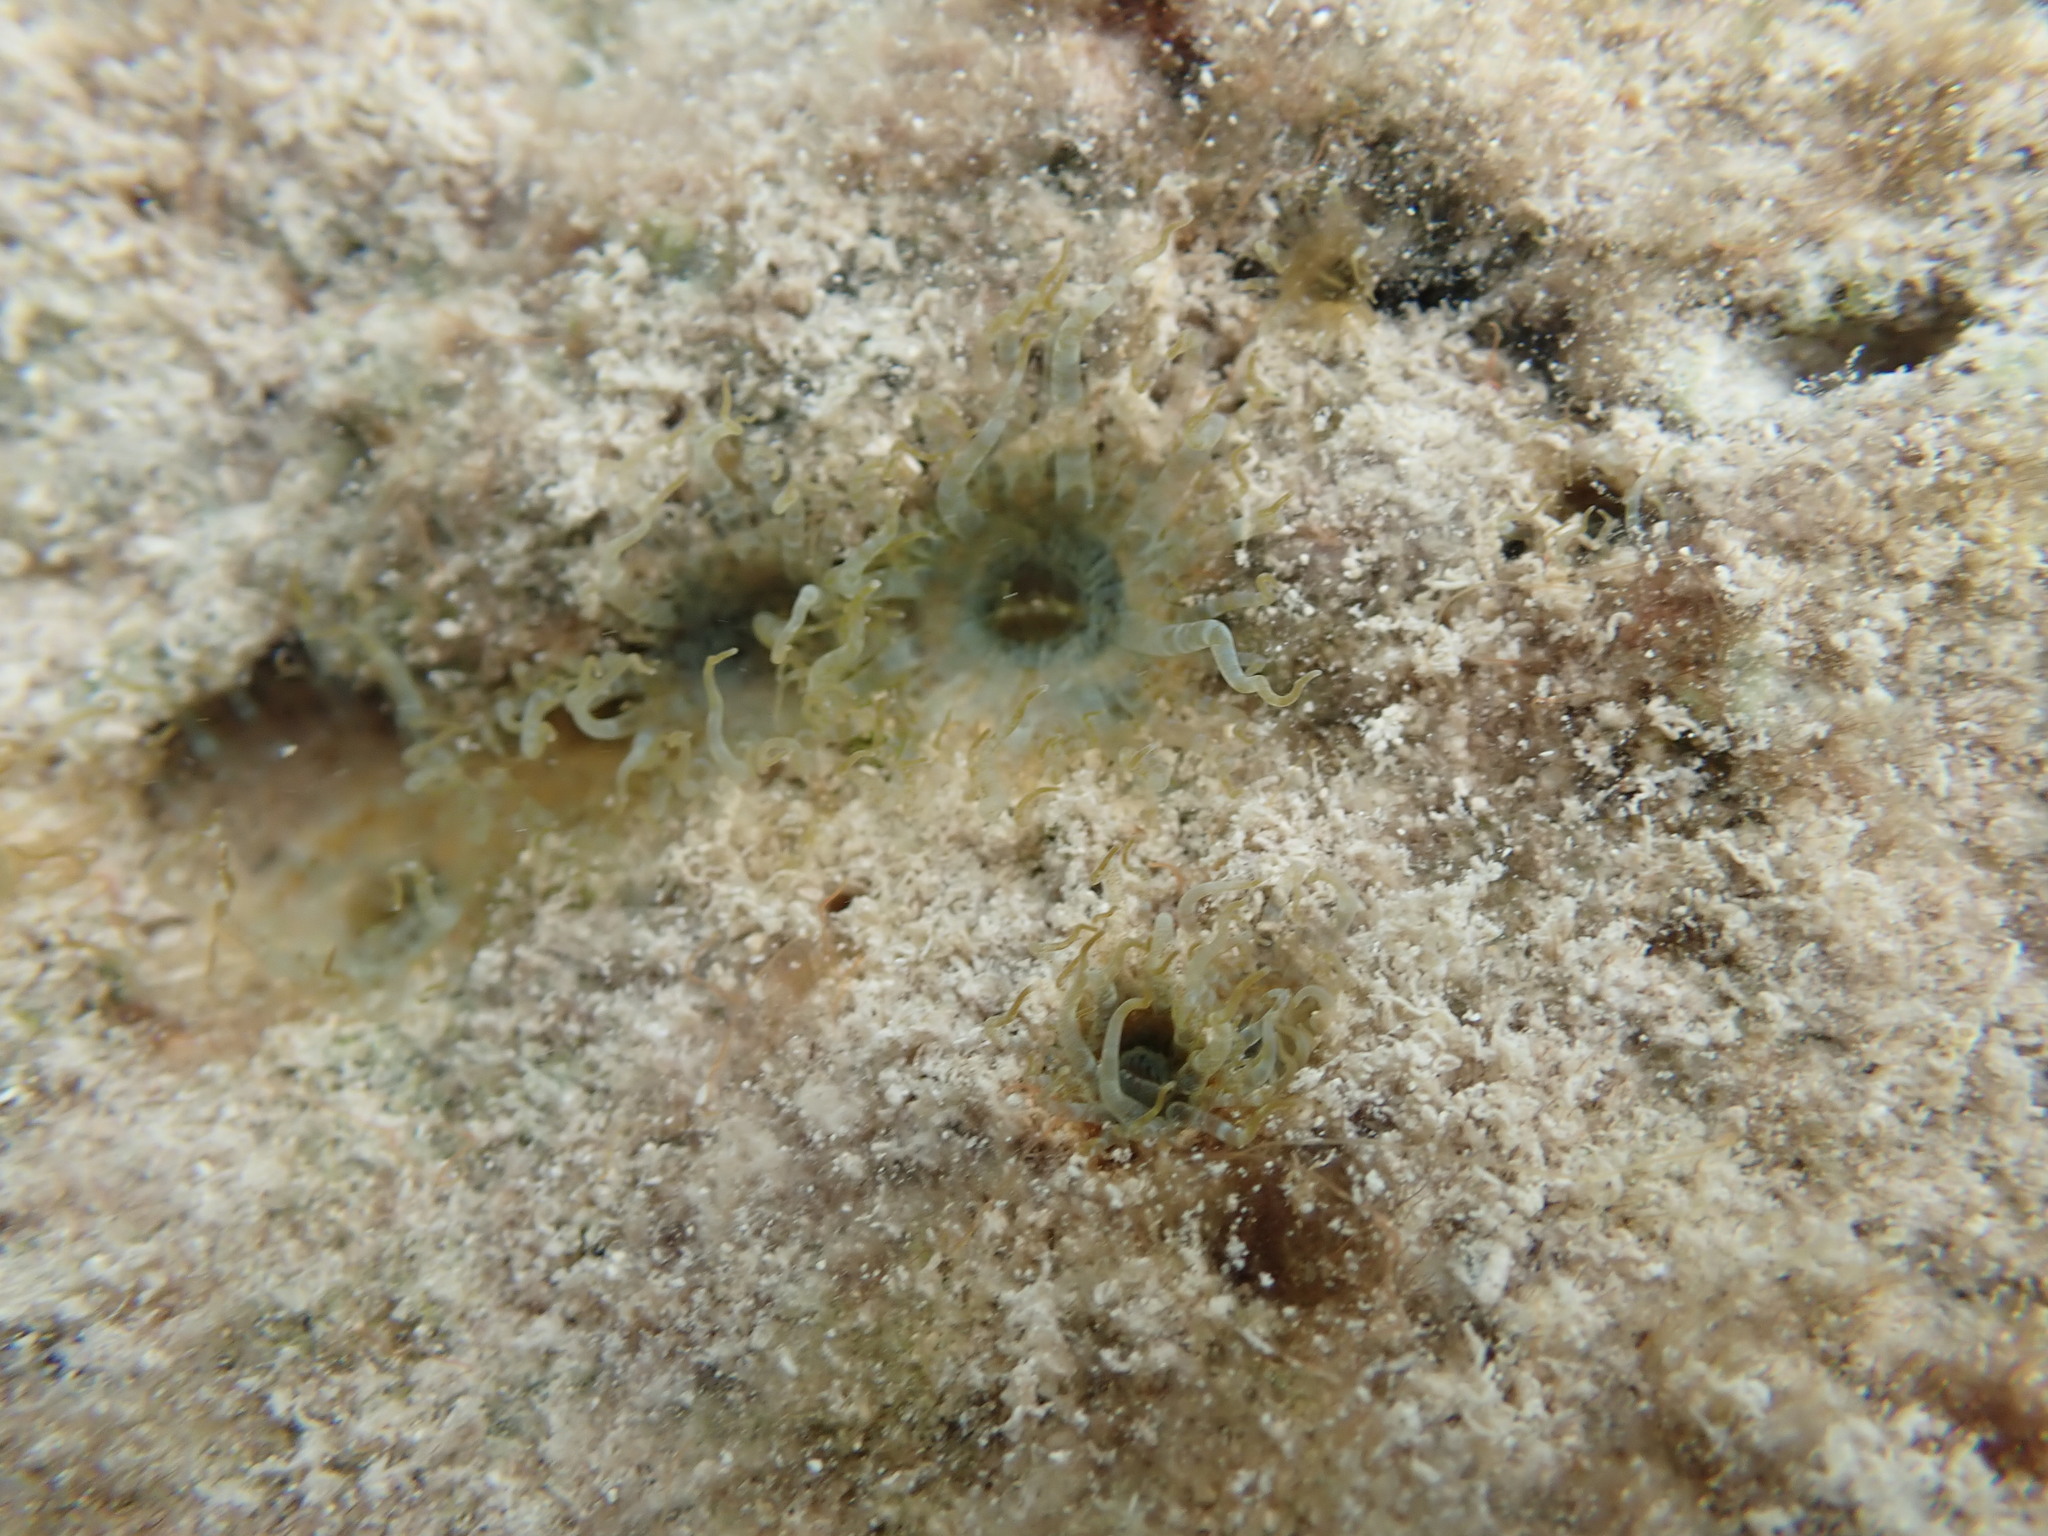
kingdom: Animalia
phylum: Cnidaria
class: Anthozoa
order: Actiniaria
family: Aiptasiidae
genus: Exaiptasia
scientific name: Exaiptasia diaphana
